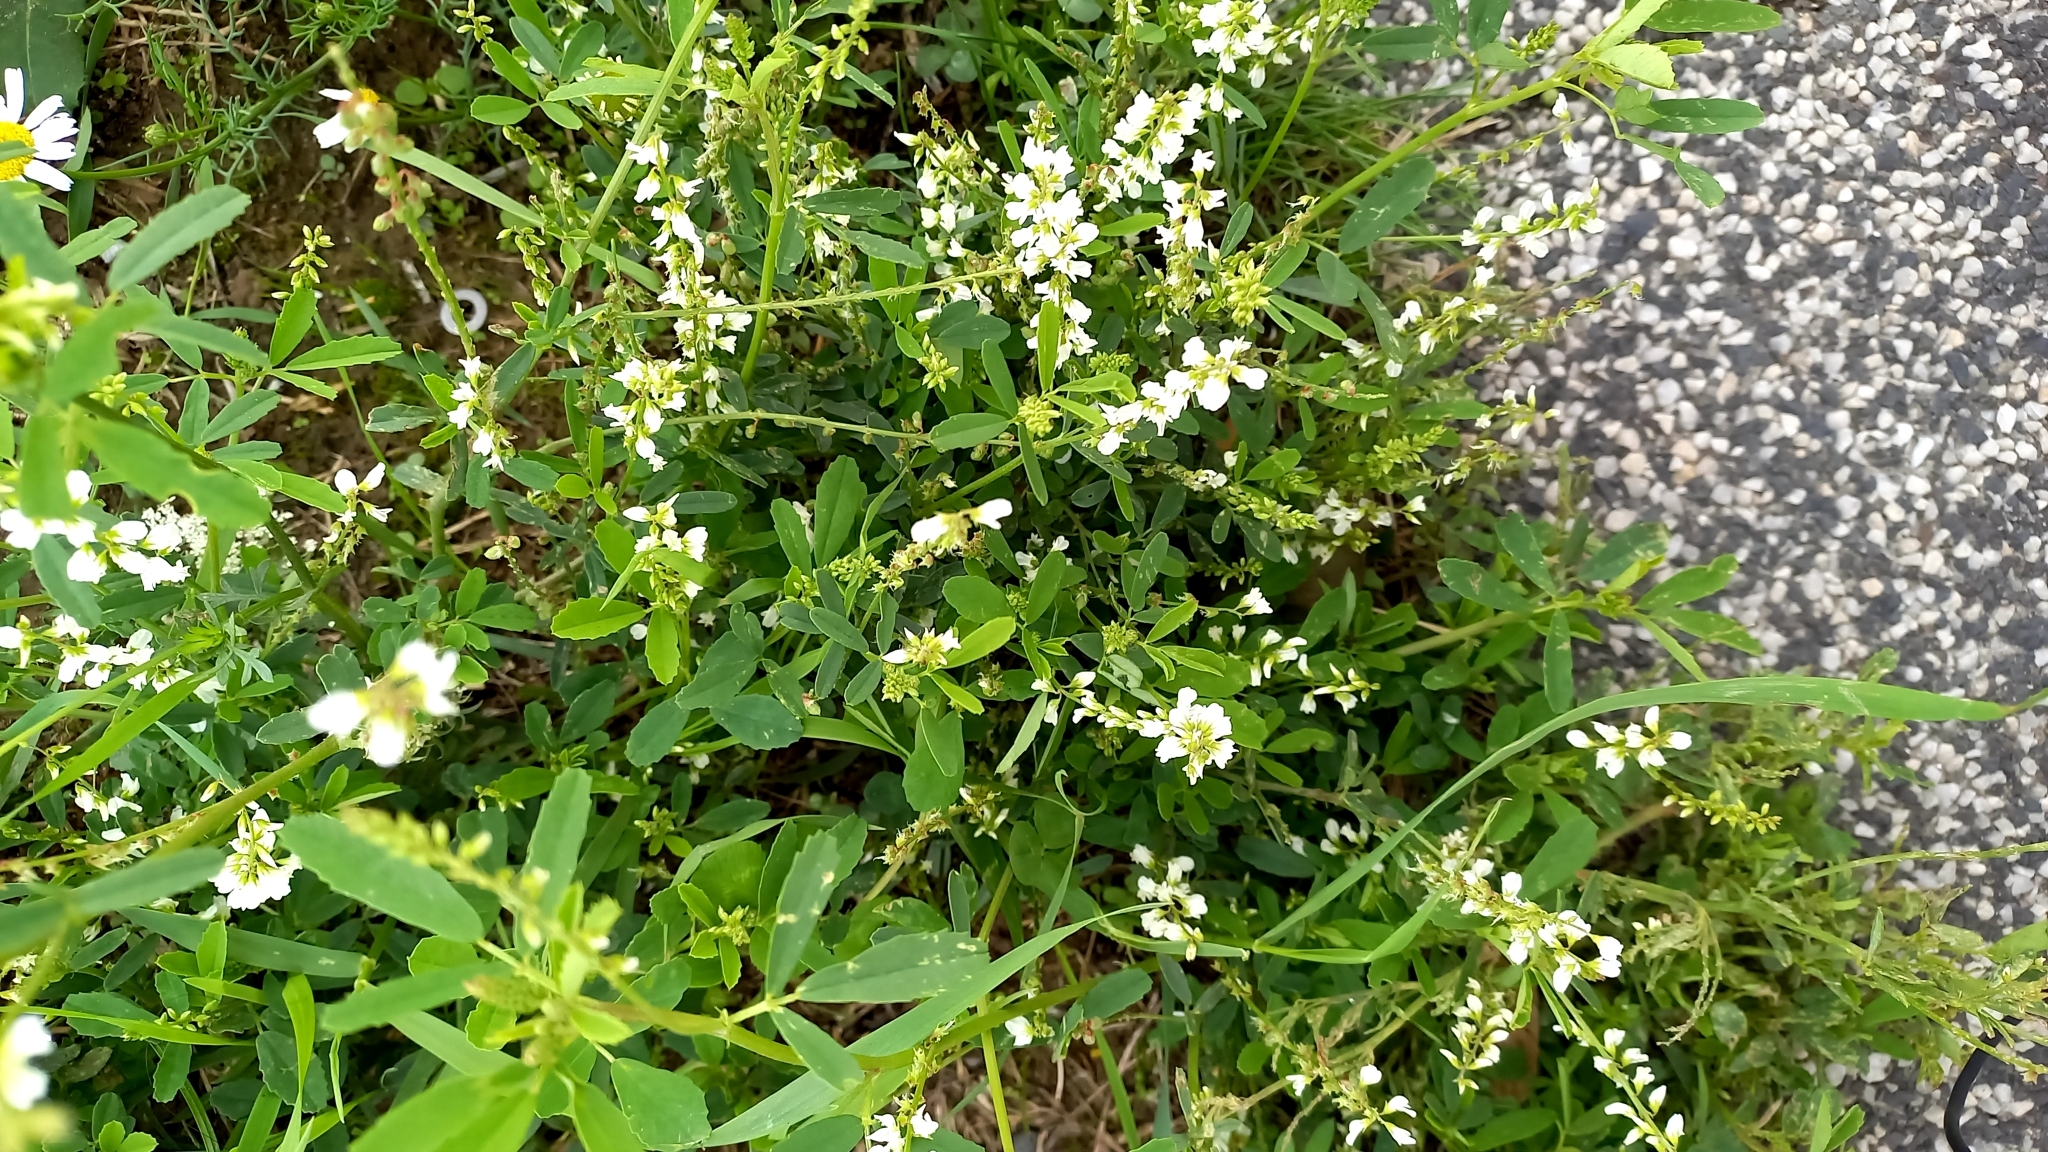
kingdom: Plantae
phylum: Tracheophyta
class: Magnoliopsida
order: Fabales
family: Fabaceae
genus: Melilotus
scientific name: Melilotus albus
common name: White melilot
